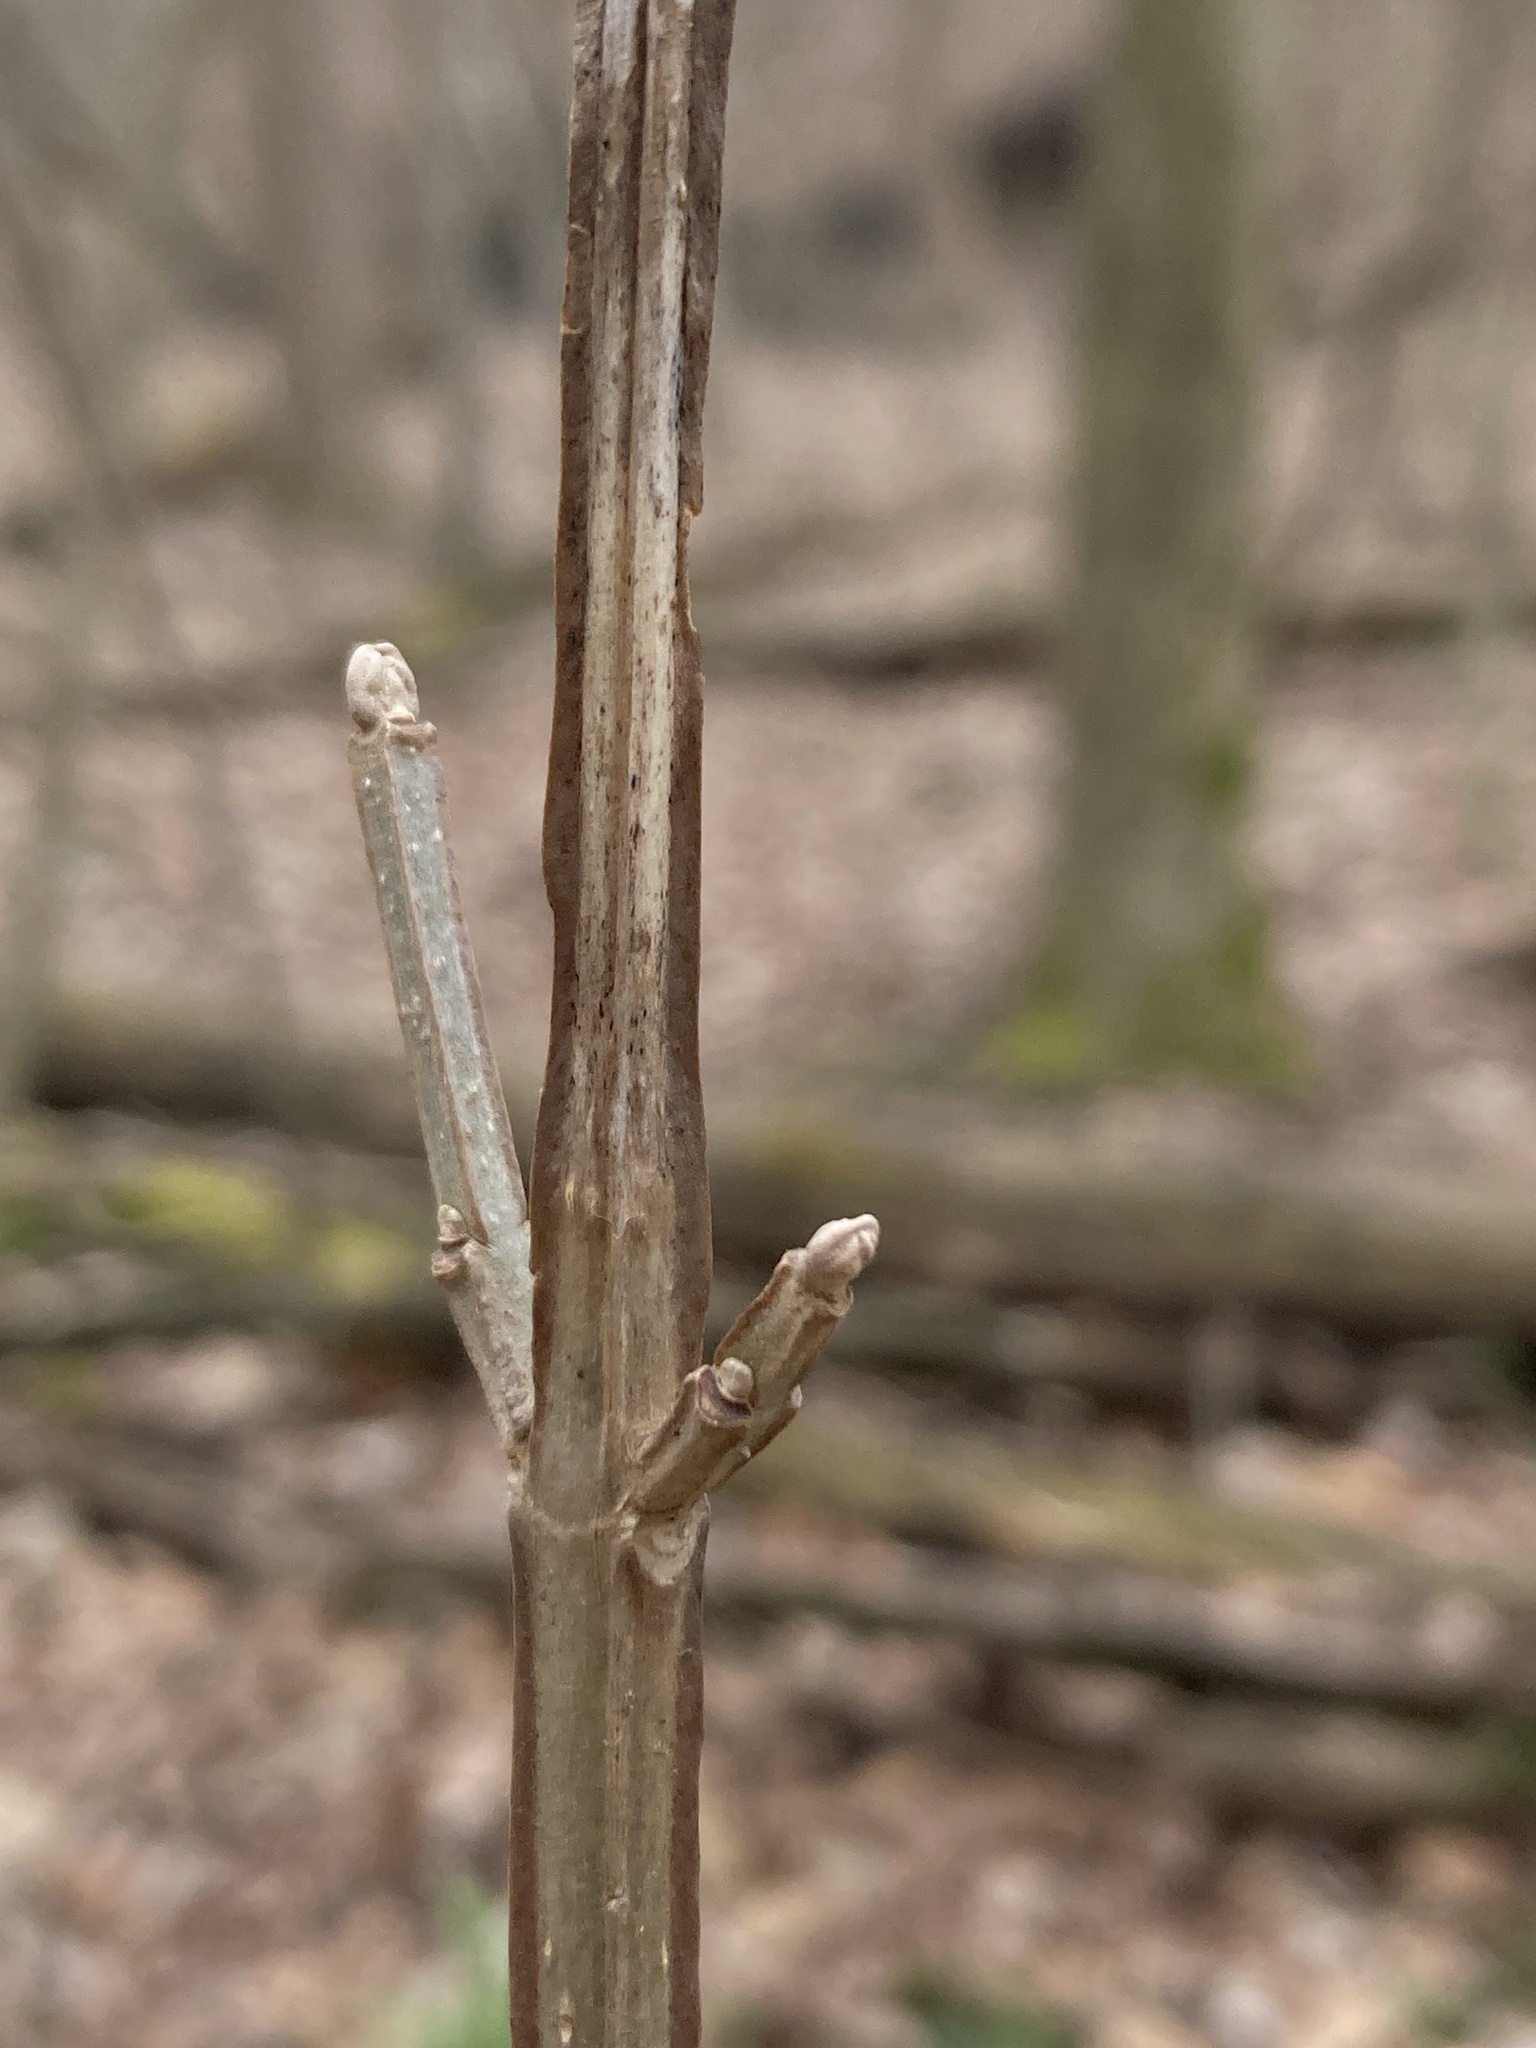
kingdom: Plantae
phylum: Tracheophyta
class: Magnoliopsida
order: Lamiales
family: Oleaceae
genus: Fraxinus
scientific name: Fraxinus quadrangulata
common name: Blue ash
